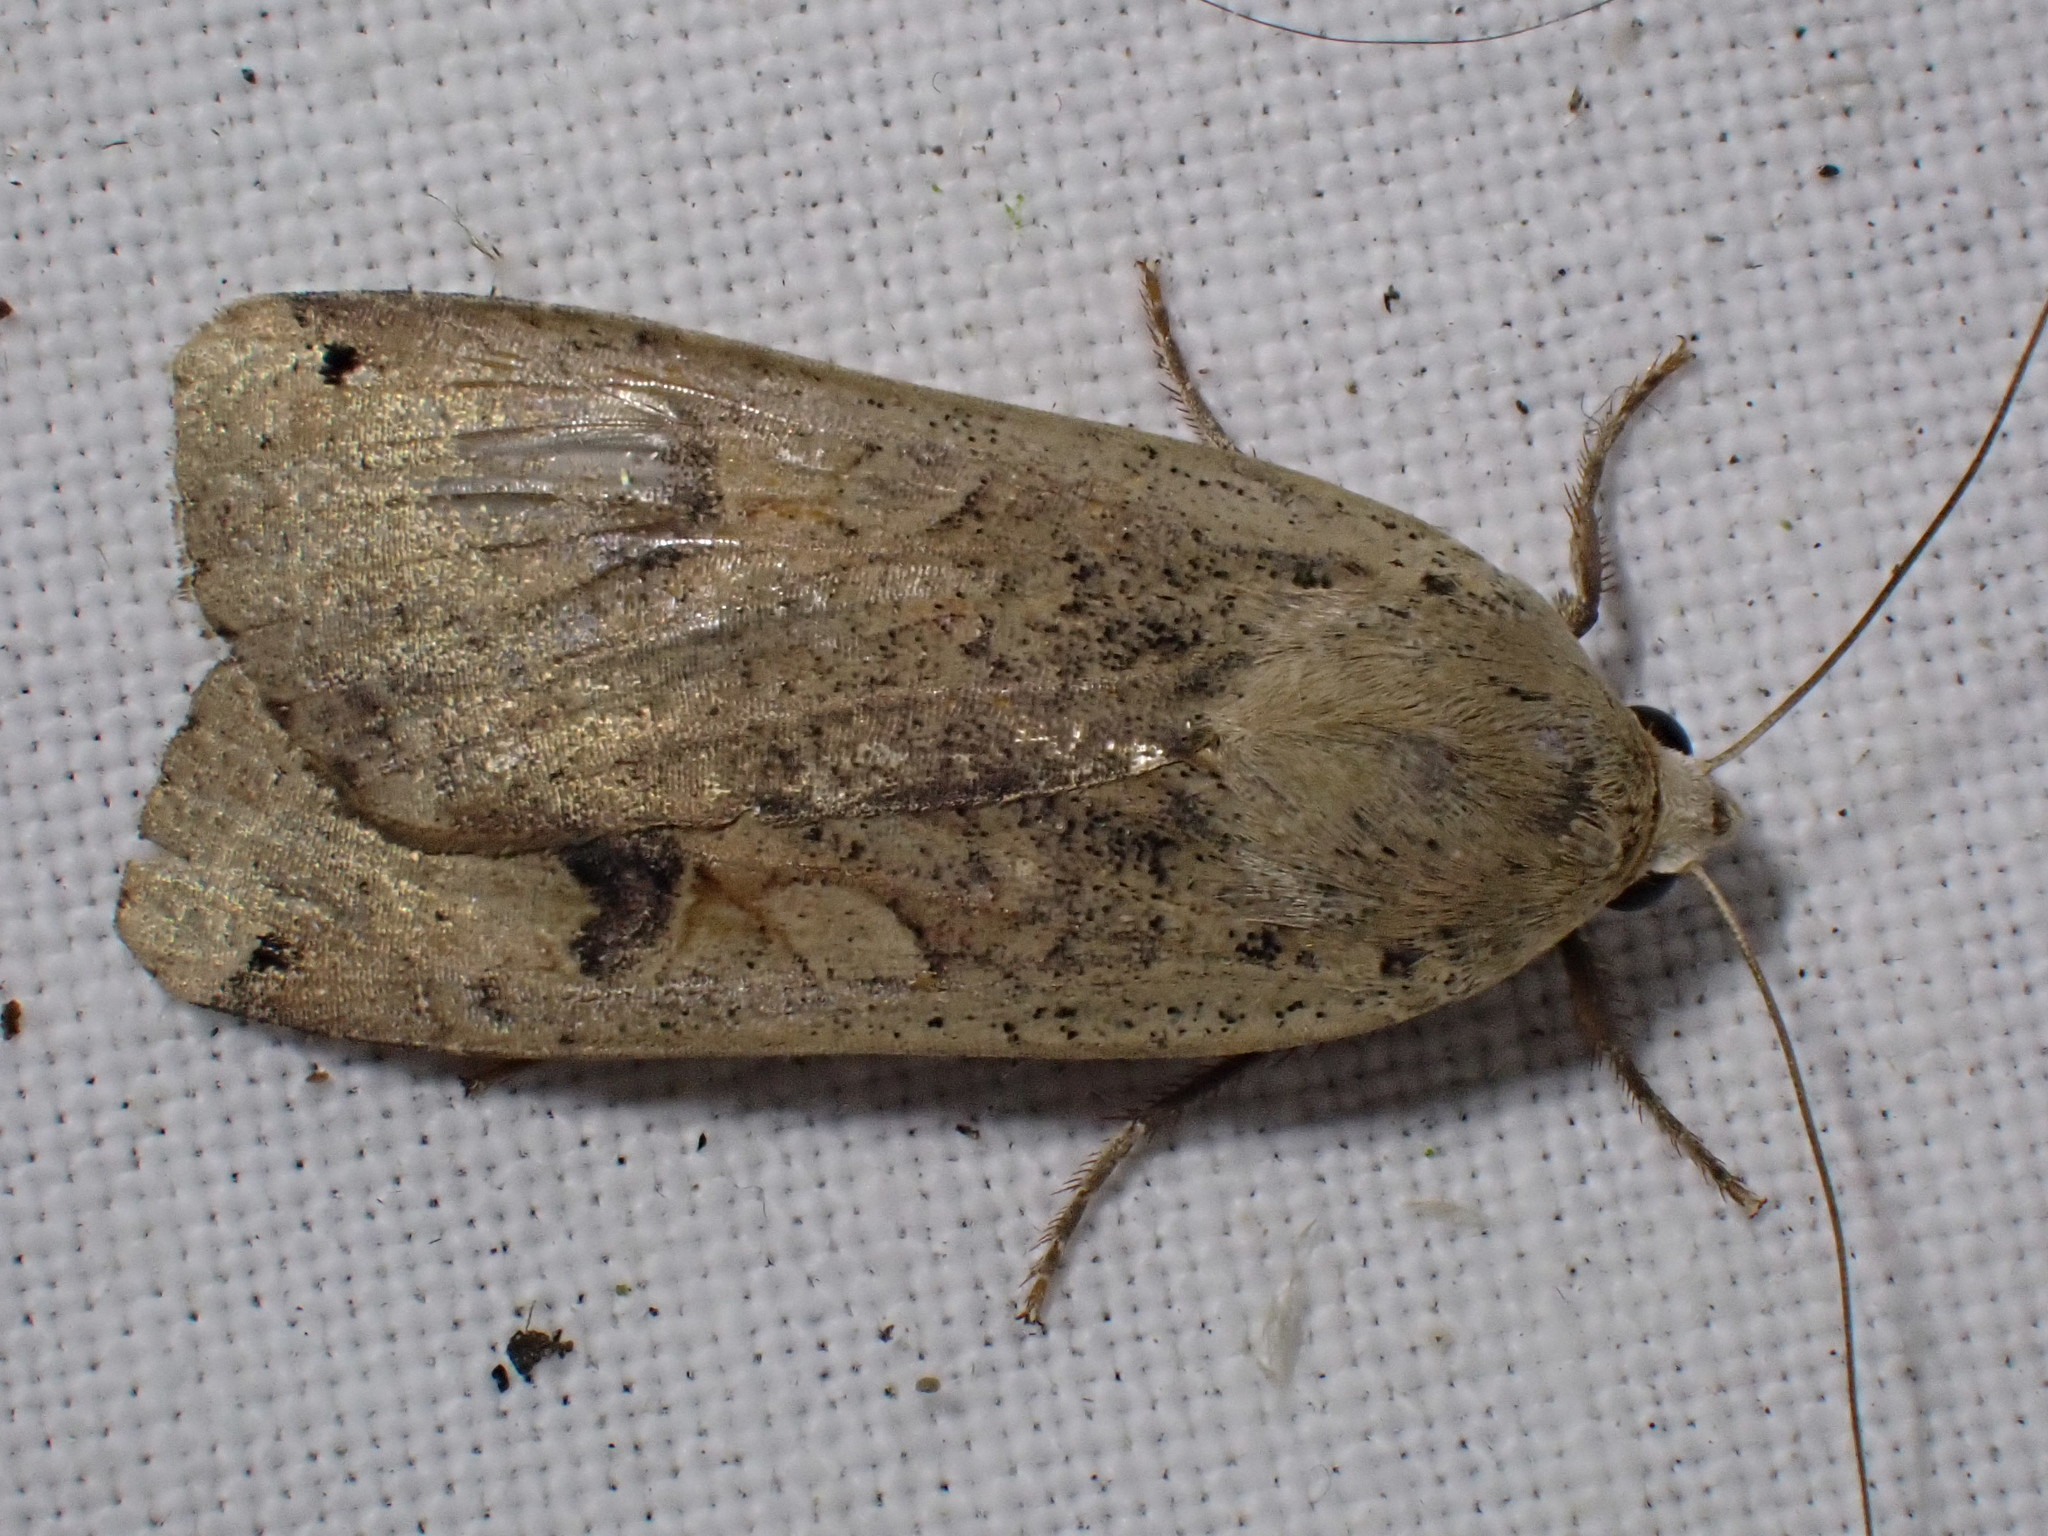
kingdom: Animalia
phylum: Arthropoda
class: Insecta
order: Lepidoptera
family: Noctuidae
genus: Noctua
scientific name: Noctua pronuba
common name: Large yellow underwing
